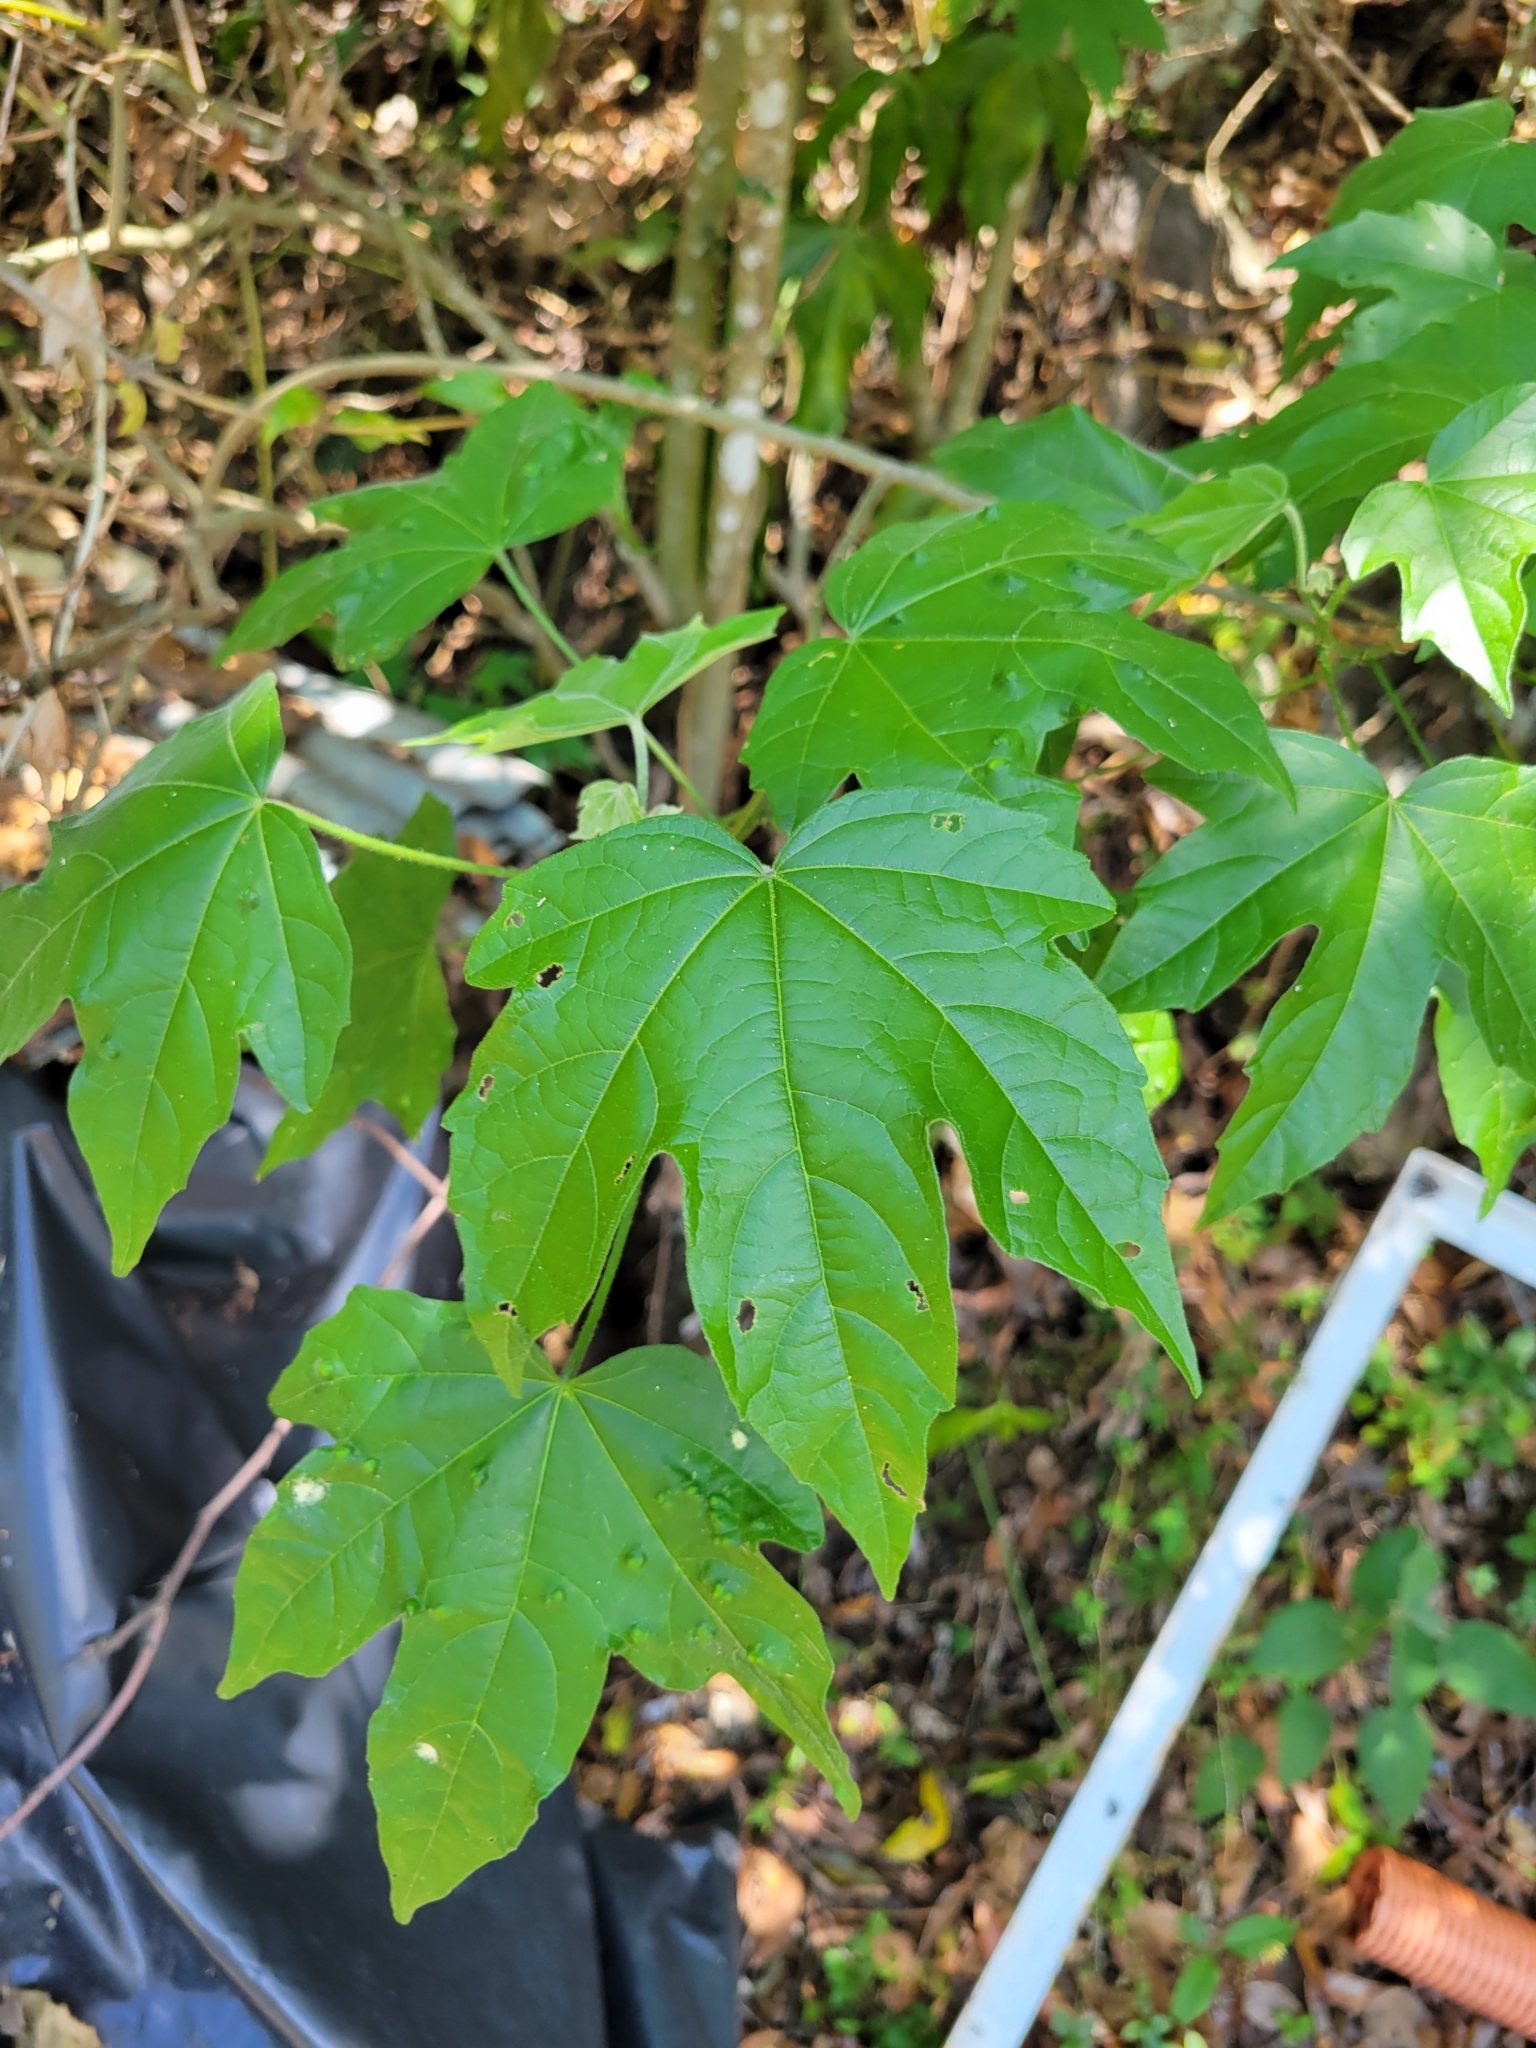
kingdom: Plantae
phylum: Tracheophyta
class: Magnoliopsida
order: Malvales
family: Malvaceae
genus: Robinsonella
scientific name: Robinsonella lindeniana
